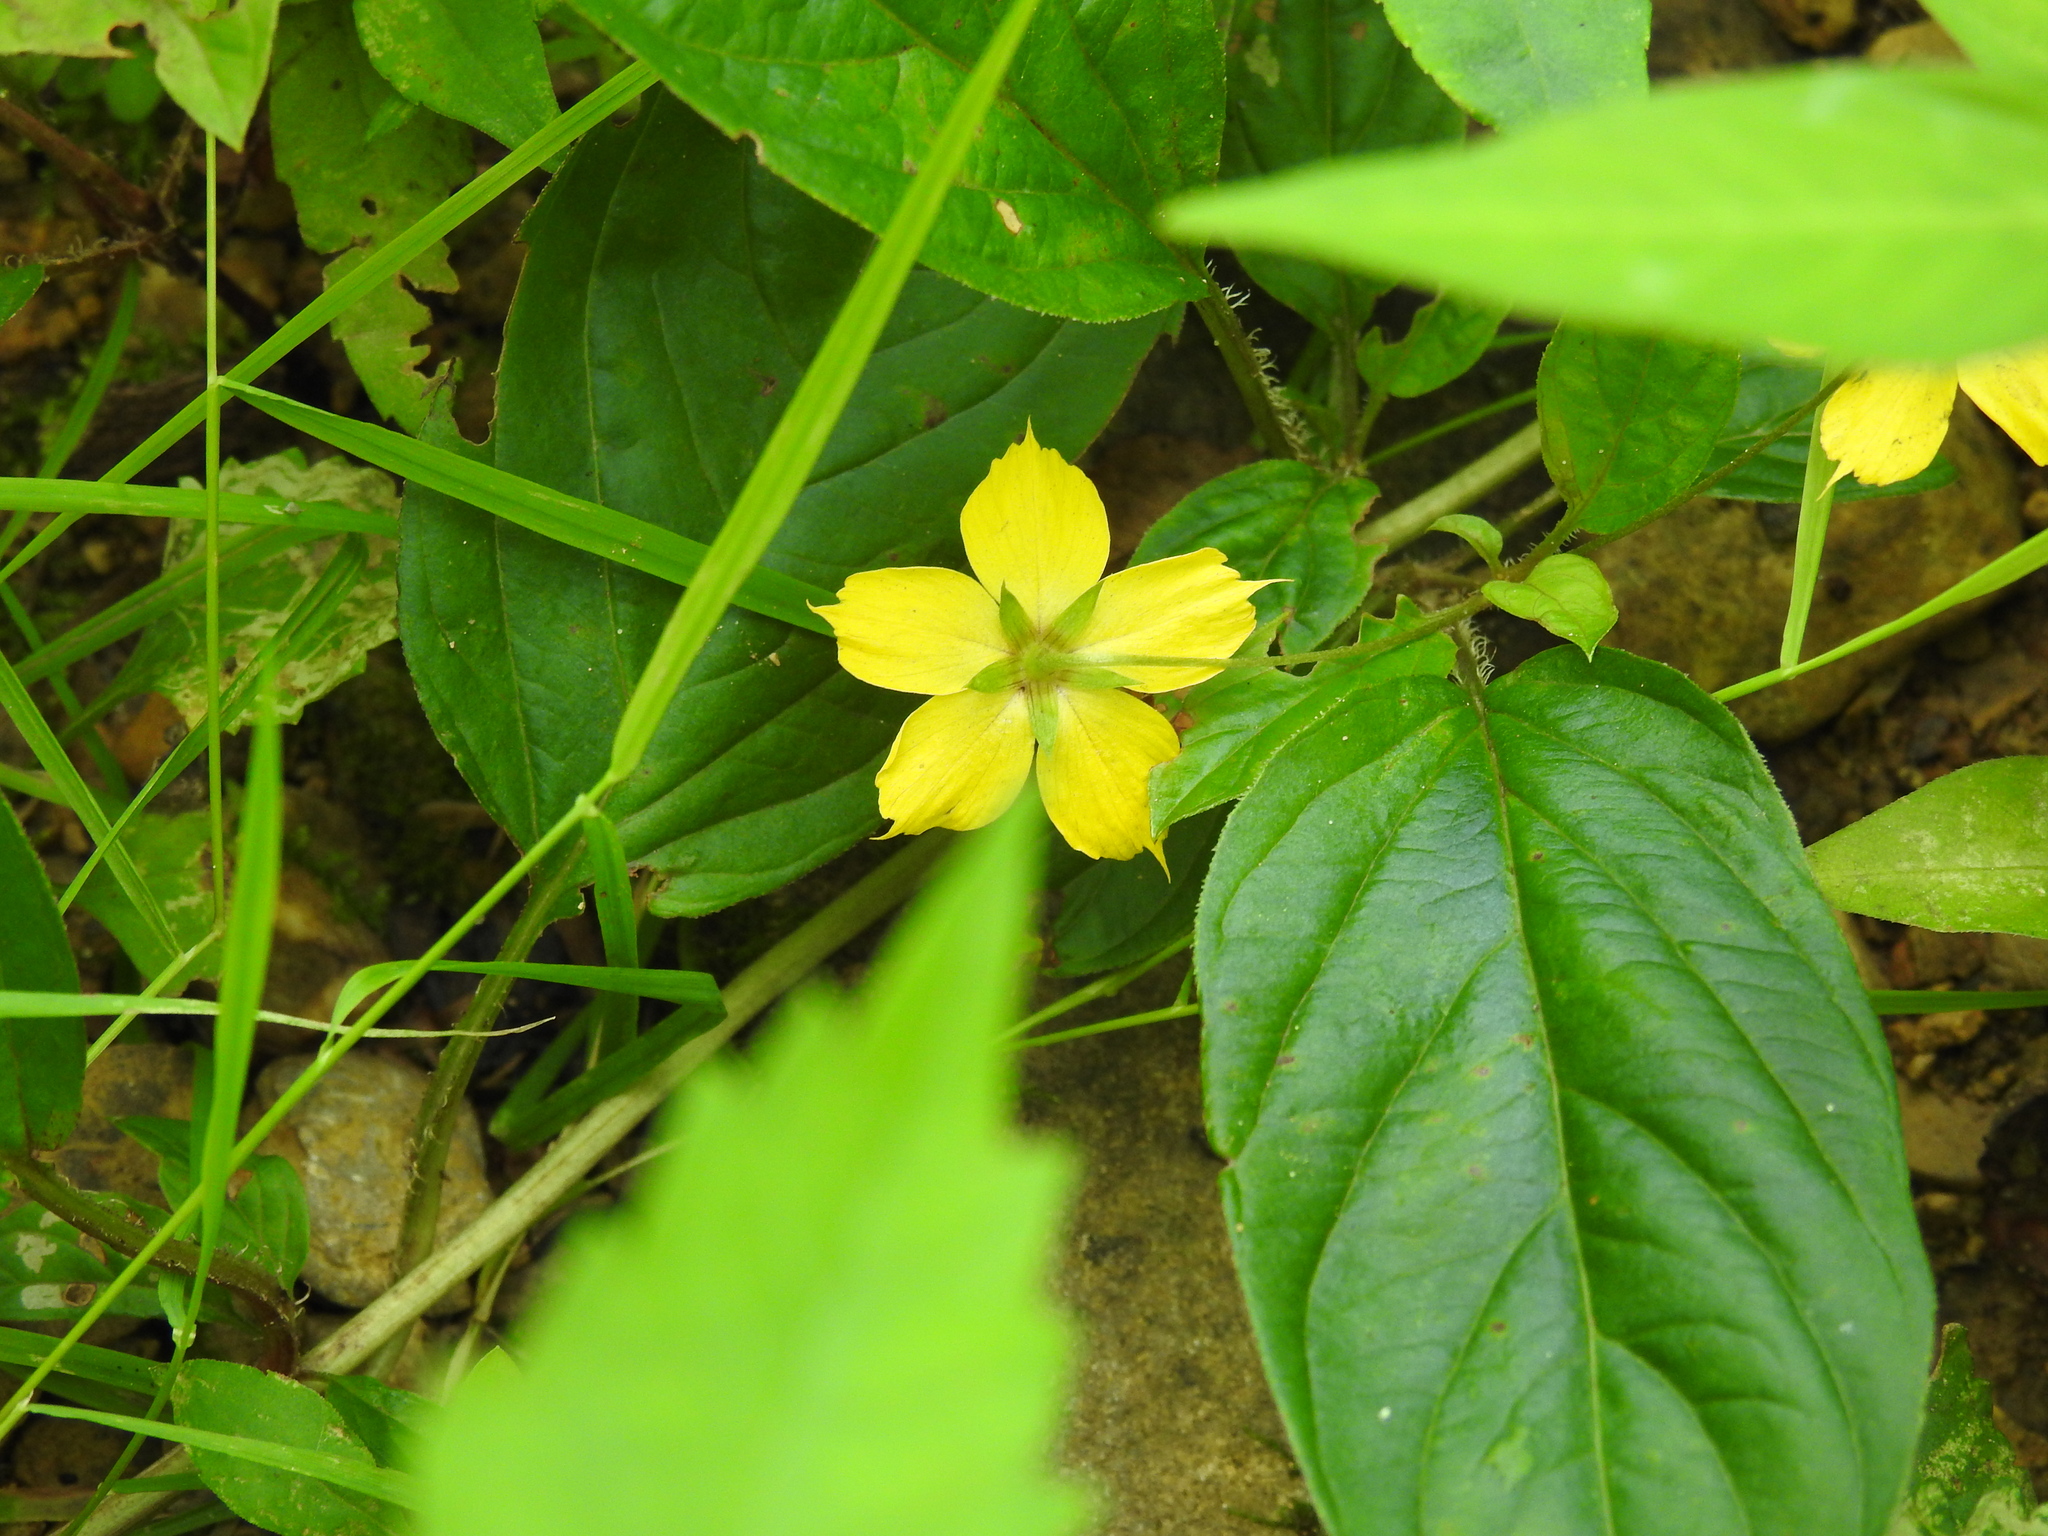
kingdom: Plantae
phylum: Tracheophyta
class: Magnoliopsida
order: Ericales
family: Primulaceae
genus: Lysimachia
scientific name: Lysimachia ciliata
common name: Fringed loosestrife
